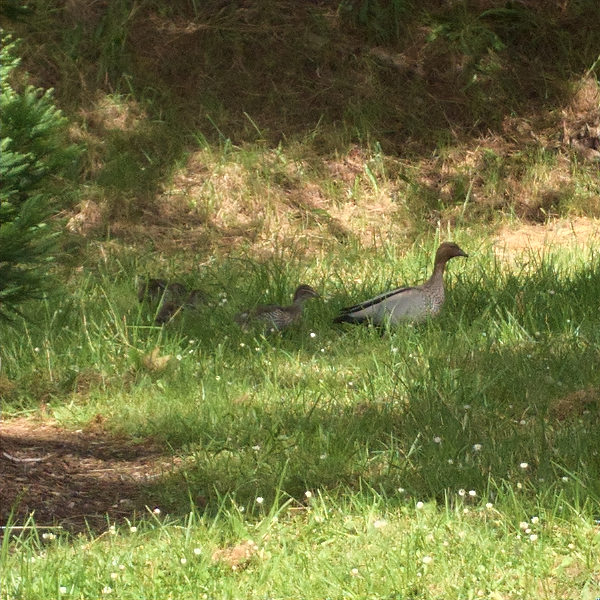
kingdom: Animalia
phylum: Chordata
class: Aves
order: Anseriformes
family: Anatidae
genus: Chenonetta
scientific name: Chenonetta jubata
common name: Maned duck
